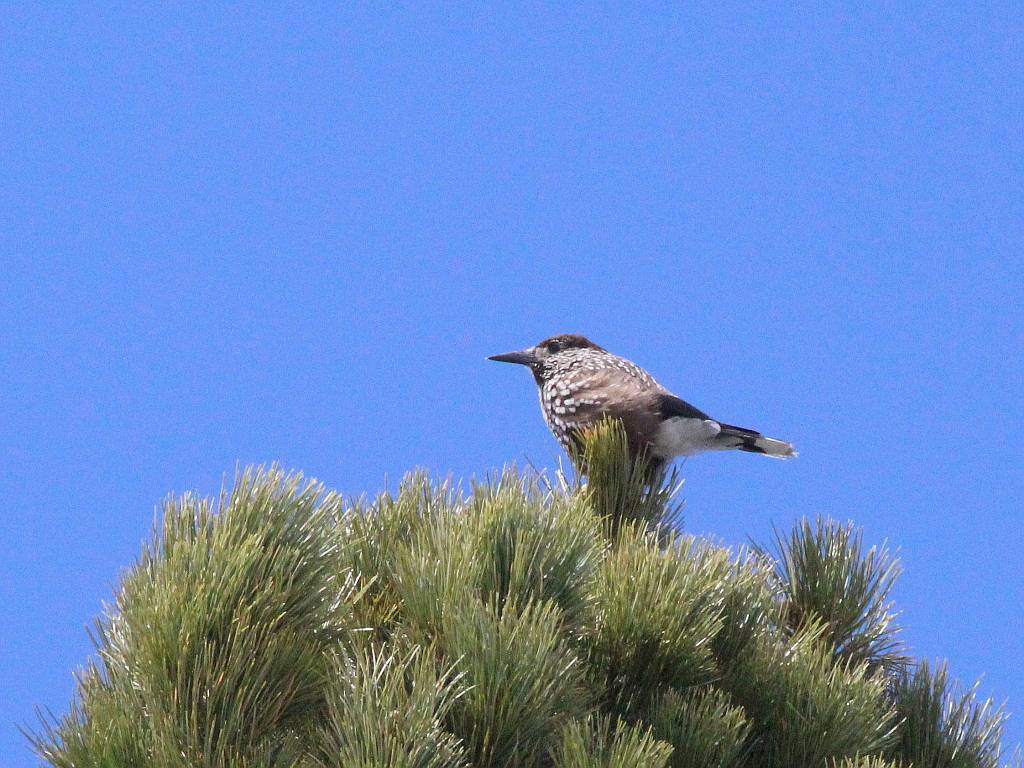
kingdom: Animalia
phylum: Chordata
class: Aves
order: Passeriformes
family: Corvidae
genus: Nucifraga
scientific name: Nucifraga caryocatactes
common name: Spotted nutcracker
